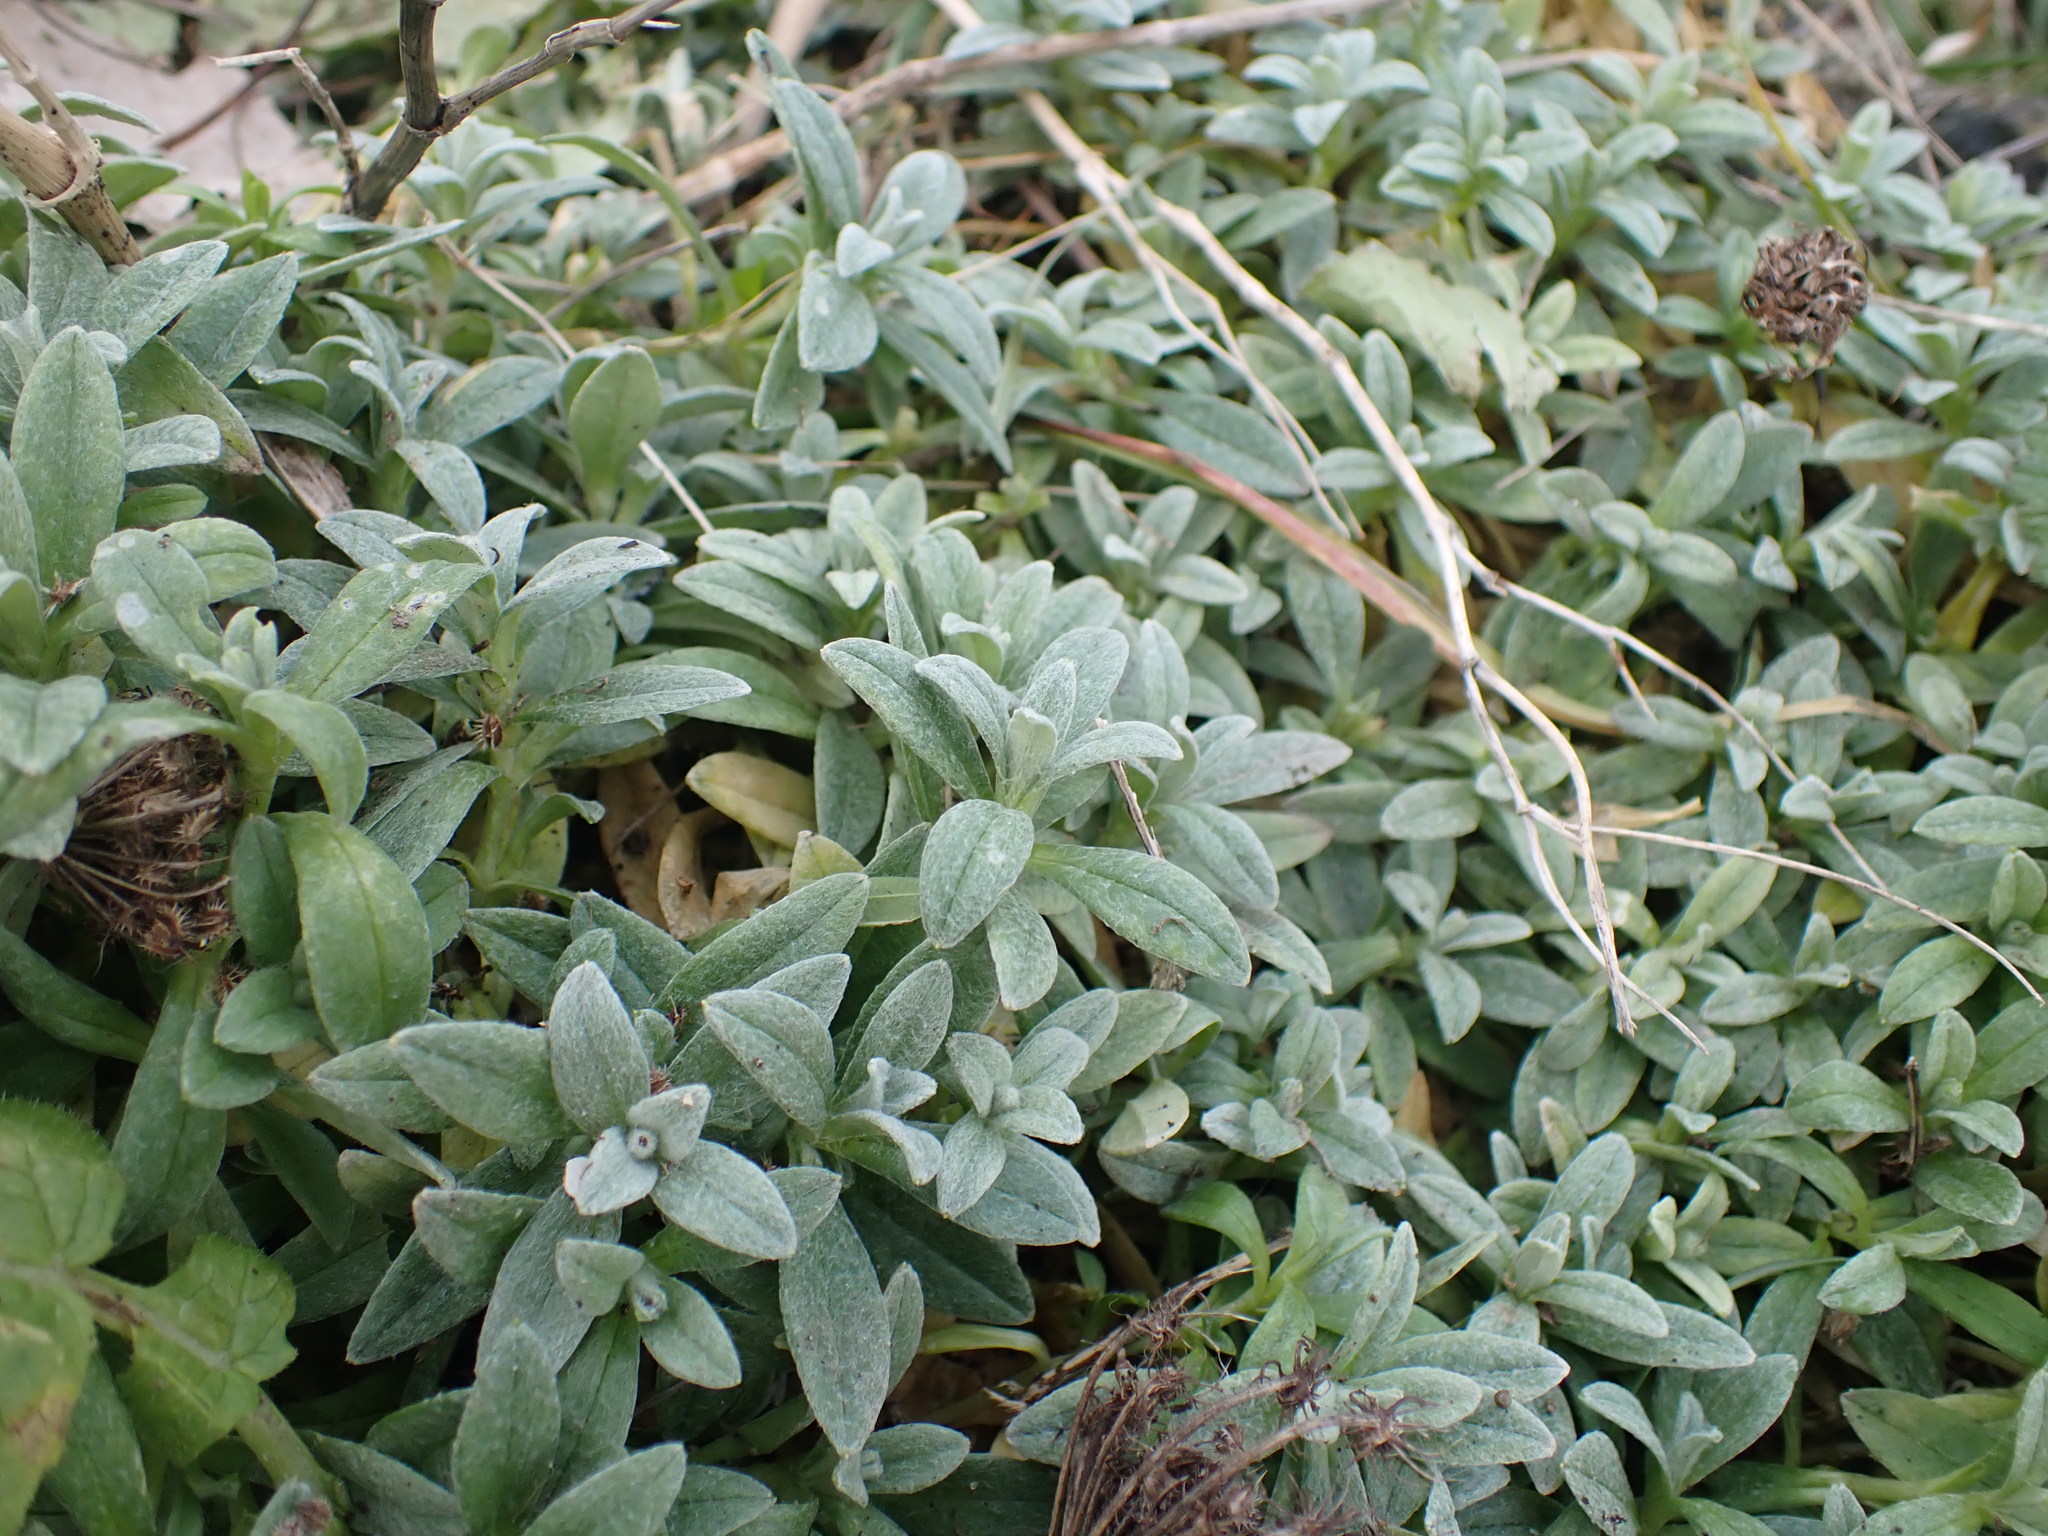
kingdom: Plantae
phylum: Tracheophyta
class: Magnoliopsida
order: Caryophyllales
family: Caryophyllaceae
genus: Cerastium
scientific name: Cerastium tomentosum
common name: Snow-in-summer
